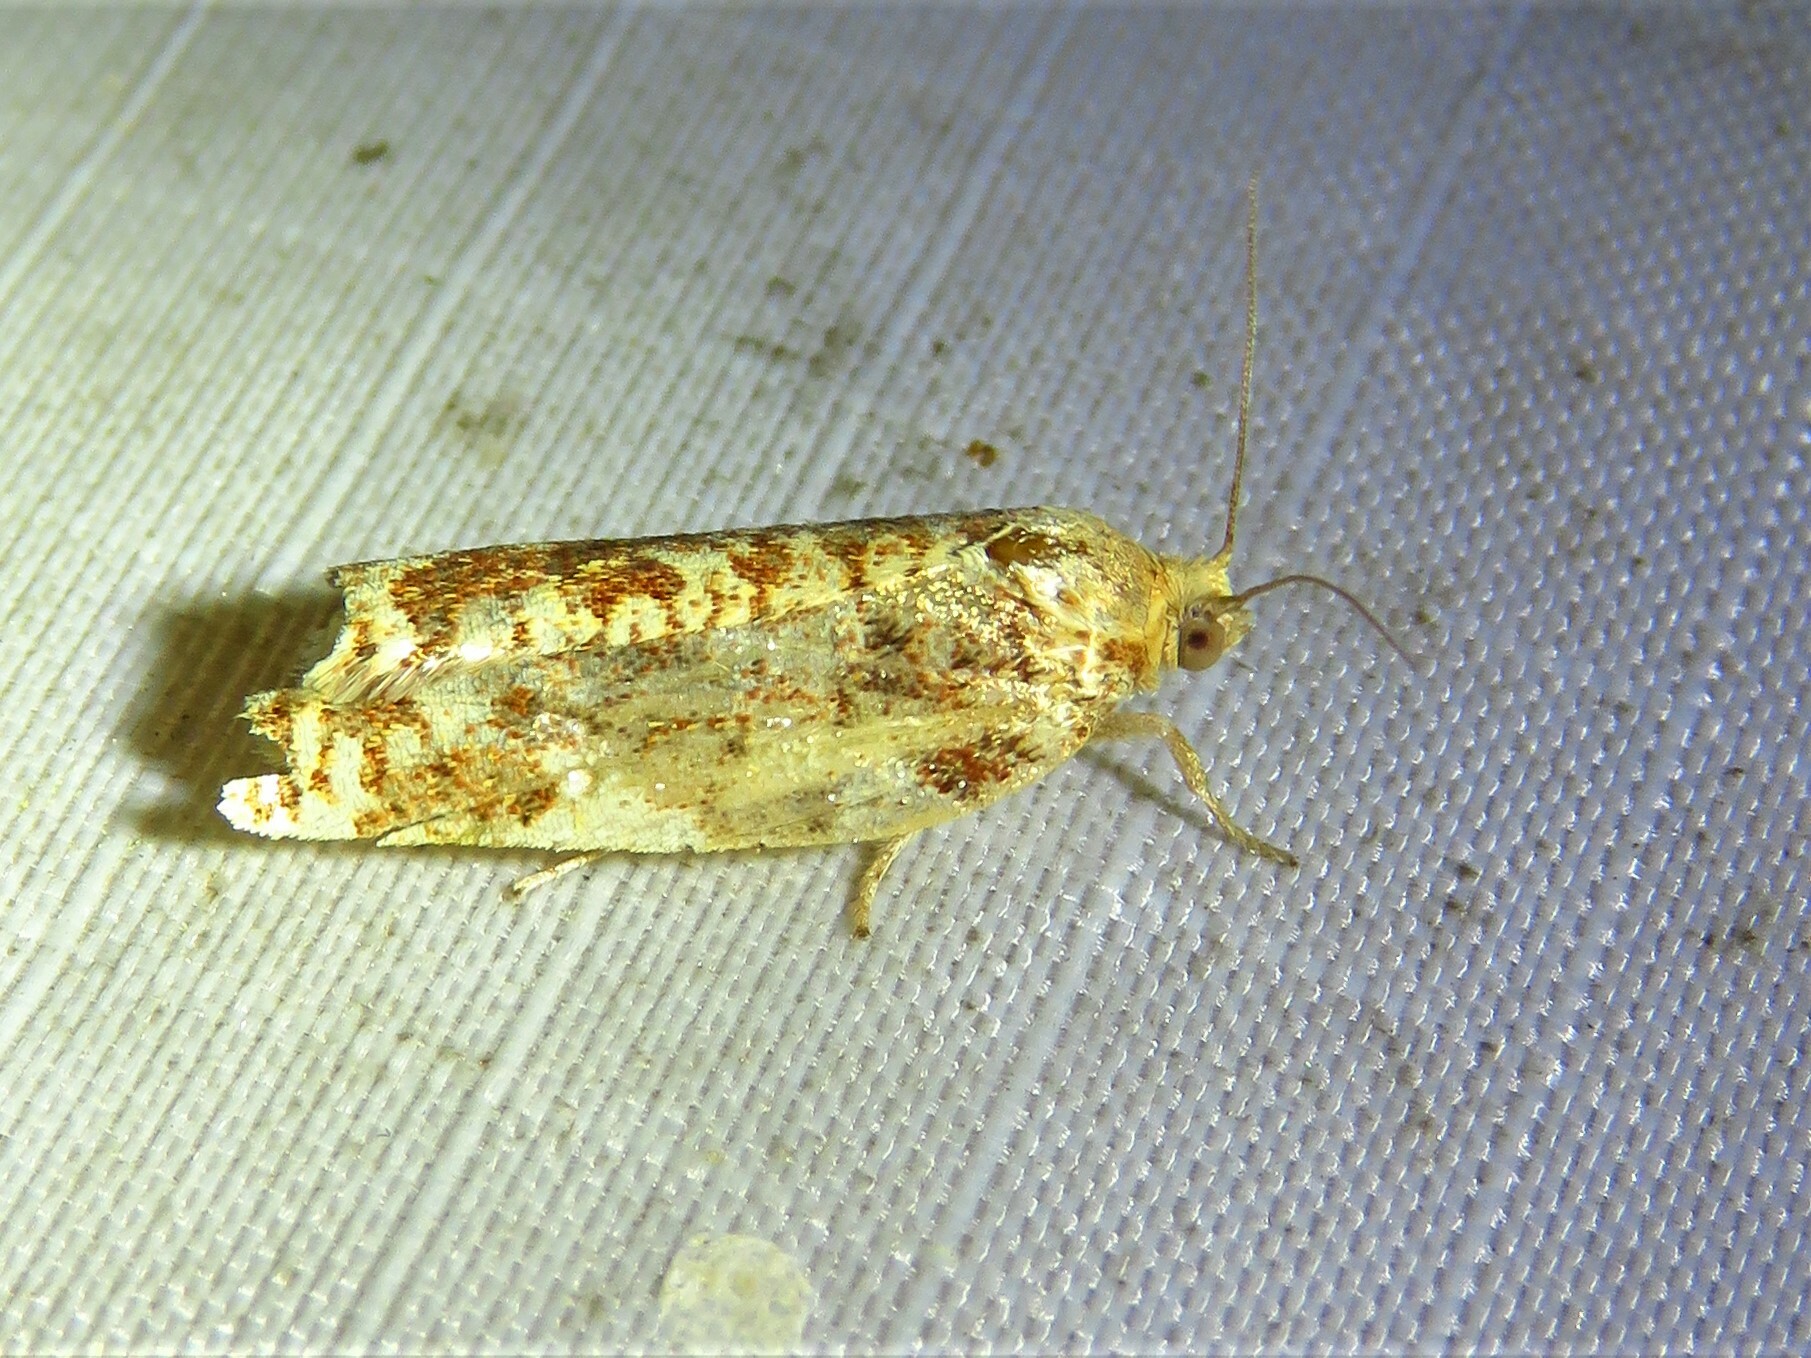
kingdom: Animalia
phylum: Arthropoda
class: Insecta
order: Lepidoptera
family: Tortricidae
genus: Archips
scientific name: Archips argyrospila
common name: Fruit-tree leafroller moth
